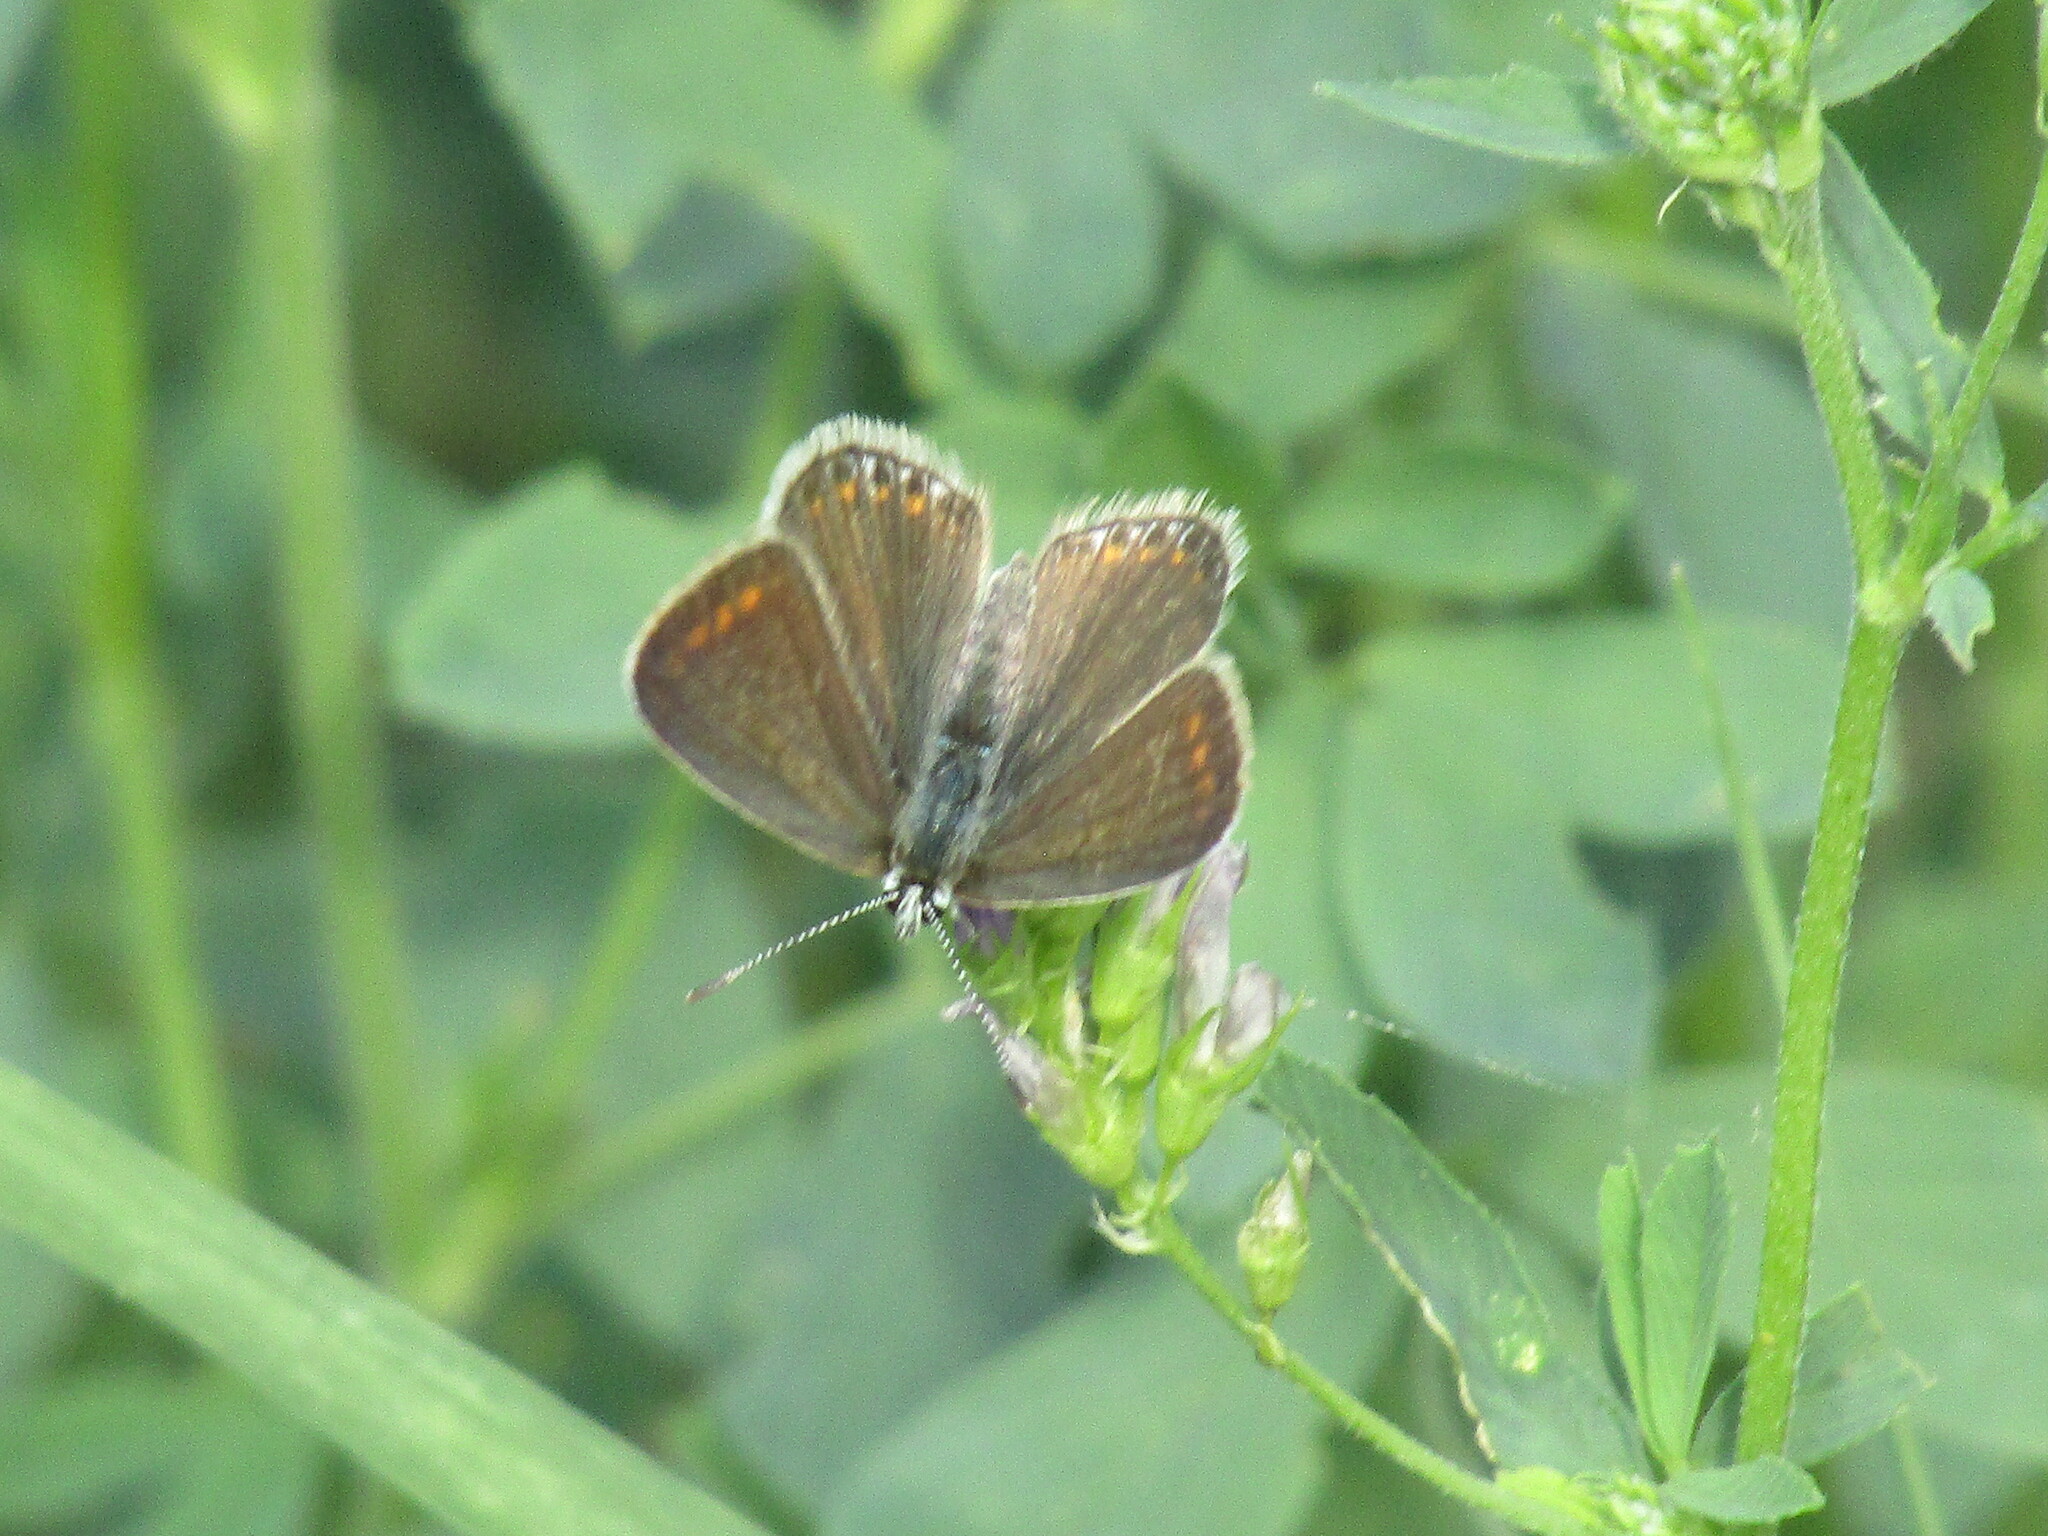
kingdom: Animalia
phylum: Arthropoda
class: Insecta
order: Lepidoptera
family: Lycaenidae
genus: Polyommatus
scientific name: Polyommatus icarus
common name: Common blue
